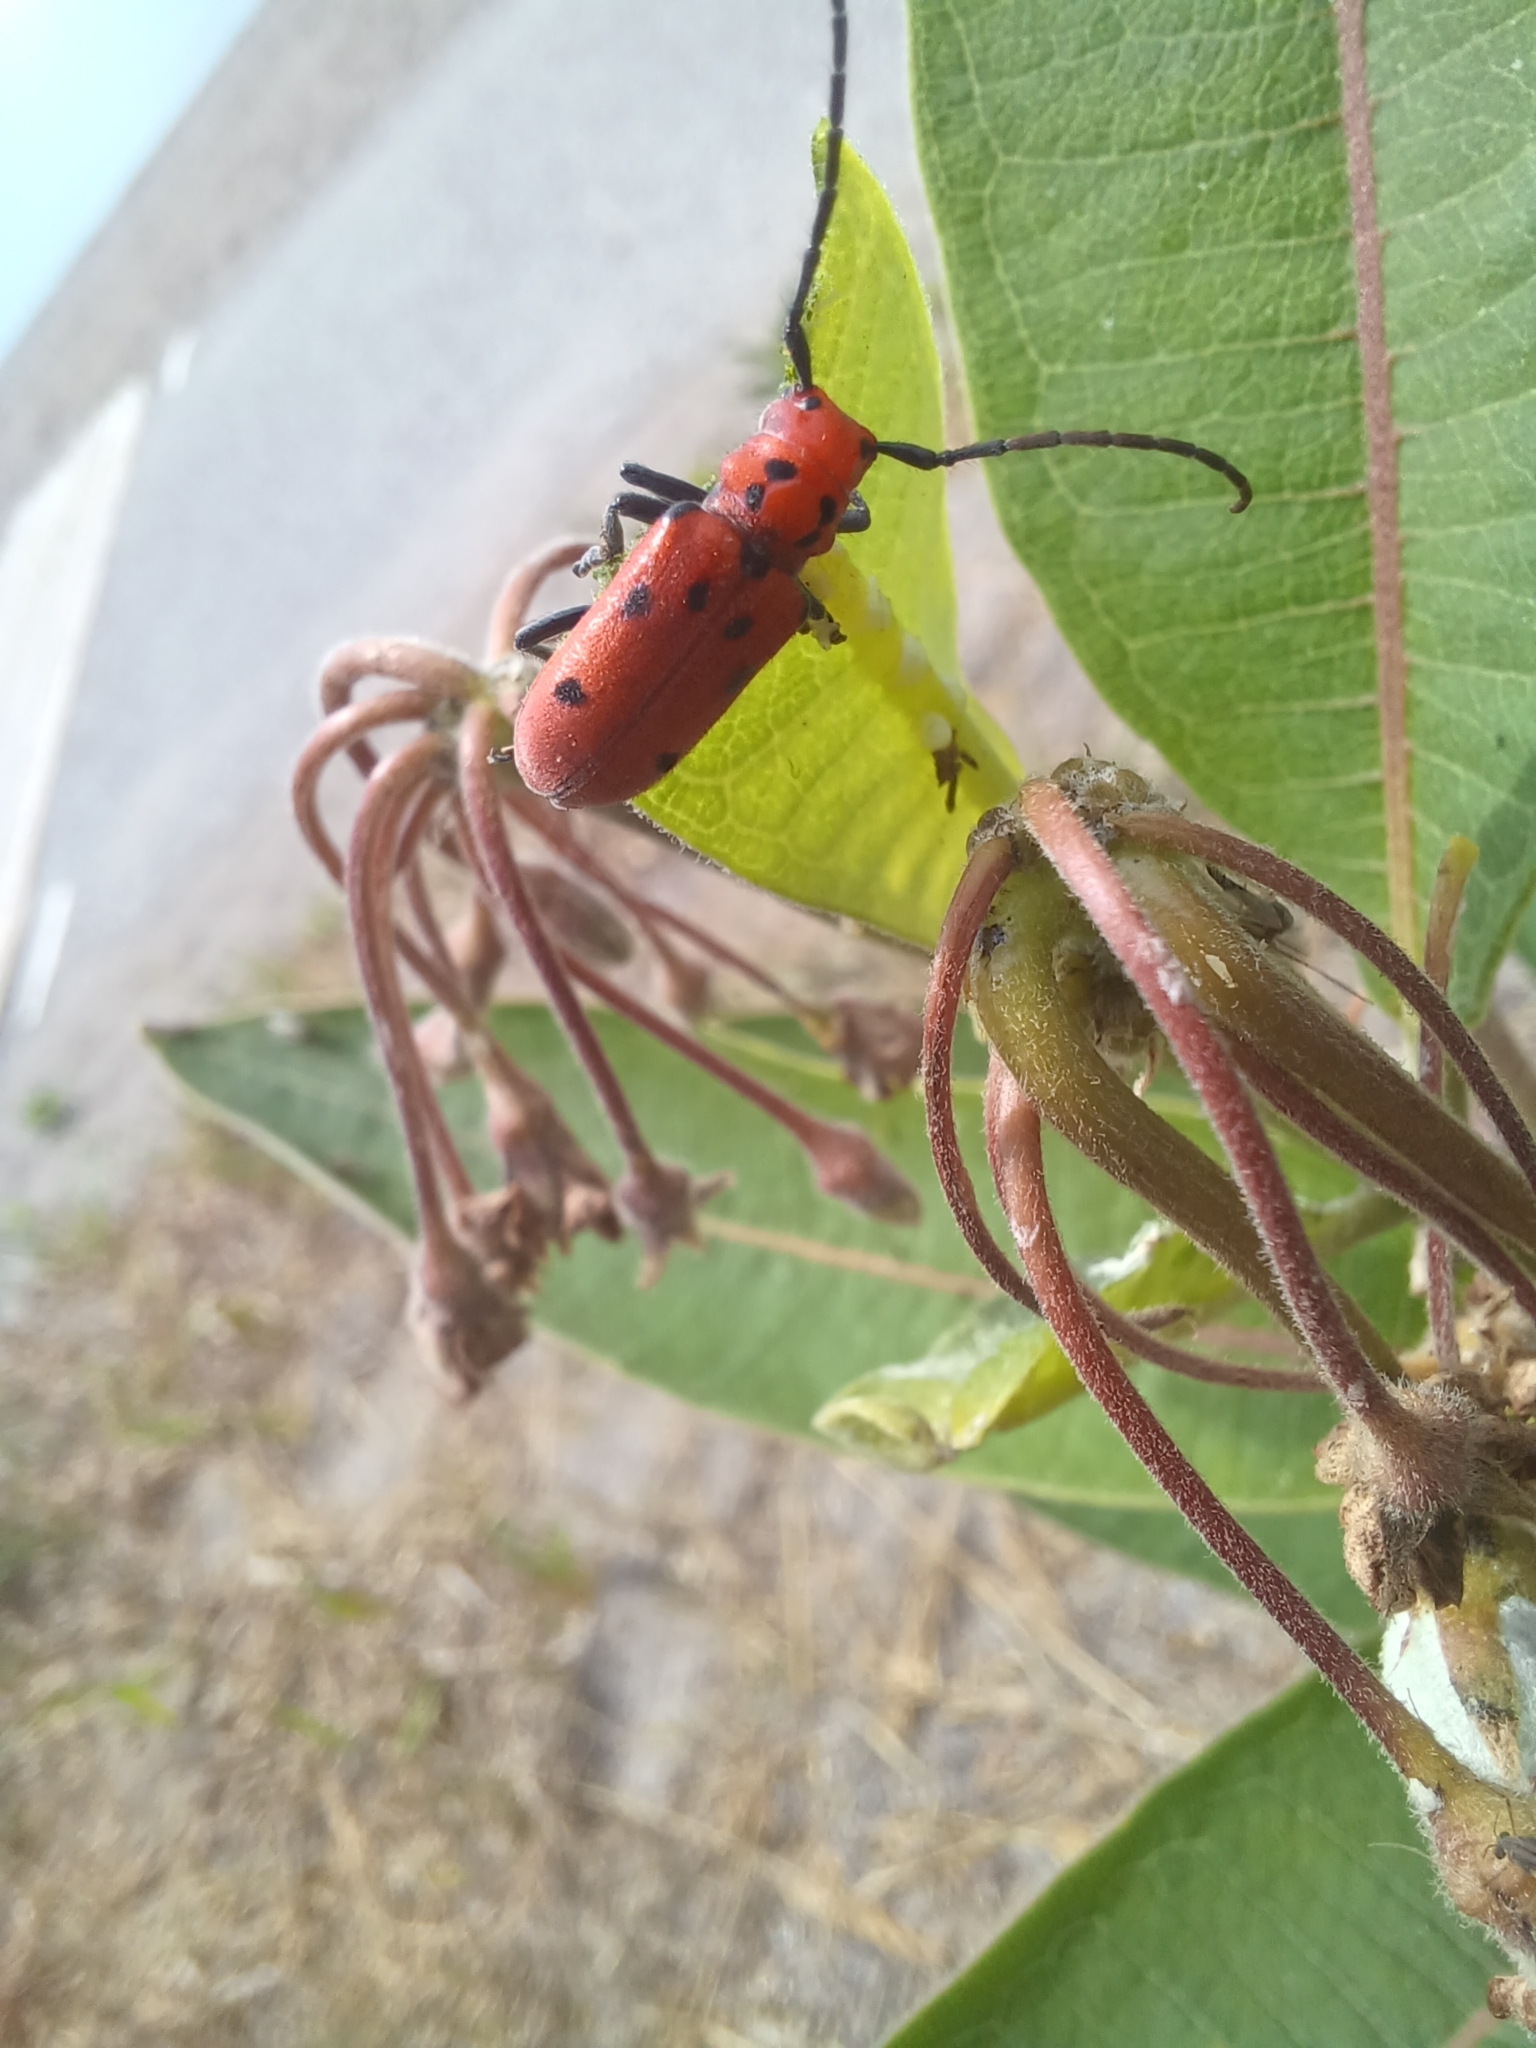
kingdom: Animalia
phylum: Arthropoda
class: Insecta
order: Coleoptera
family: Cerambycidae
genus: Tetraopes
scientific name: Tetraopes tetrophthalmus
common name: Red milkweed beetle
